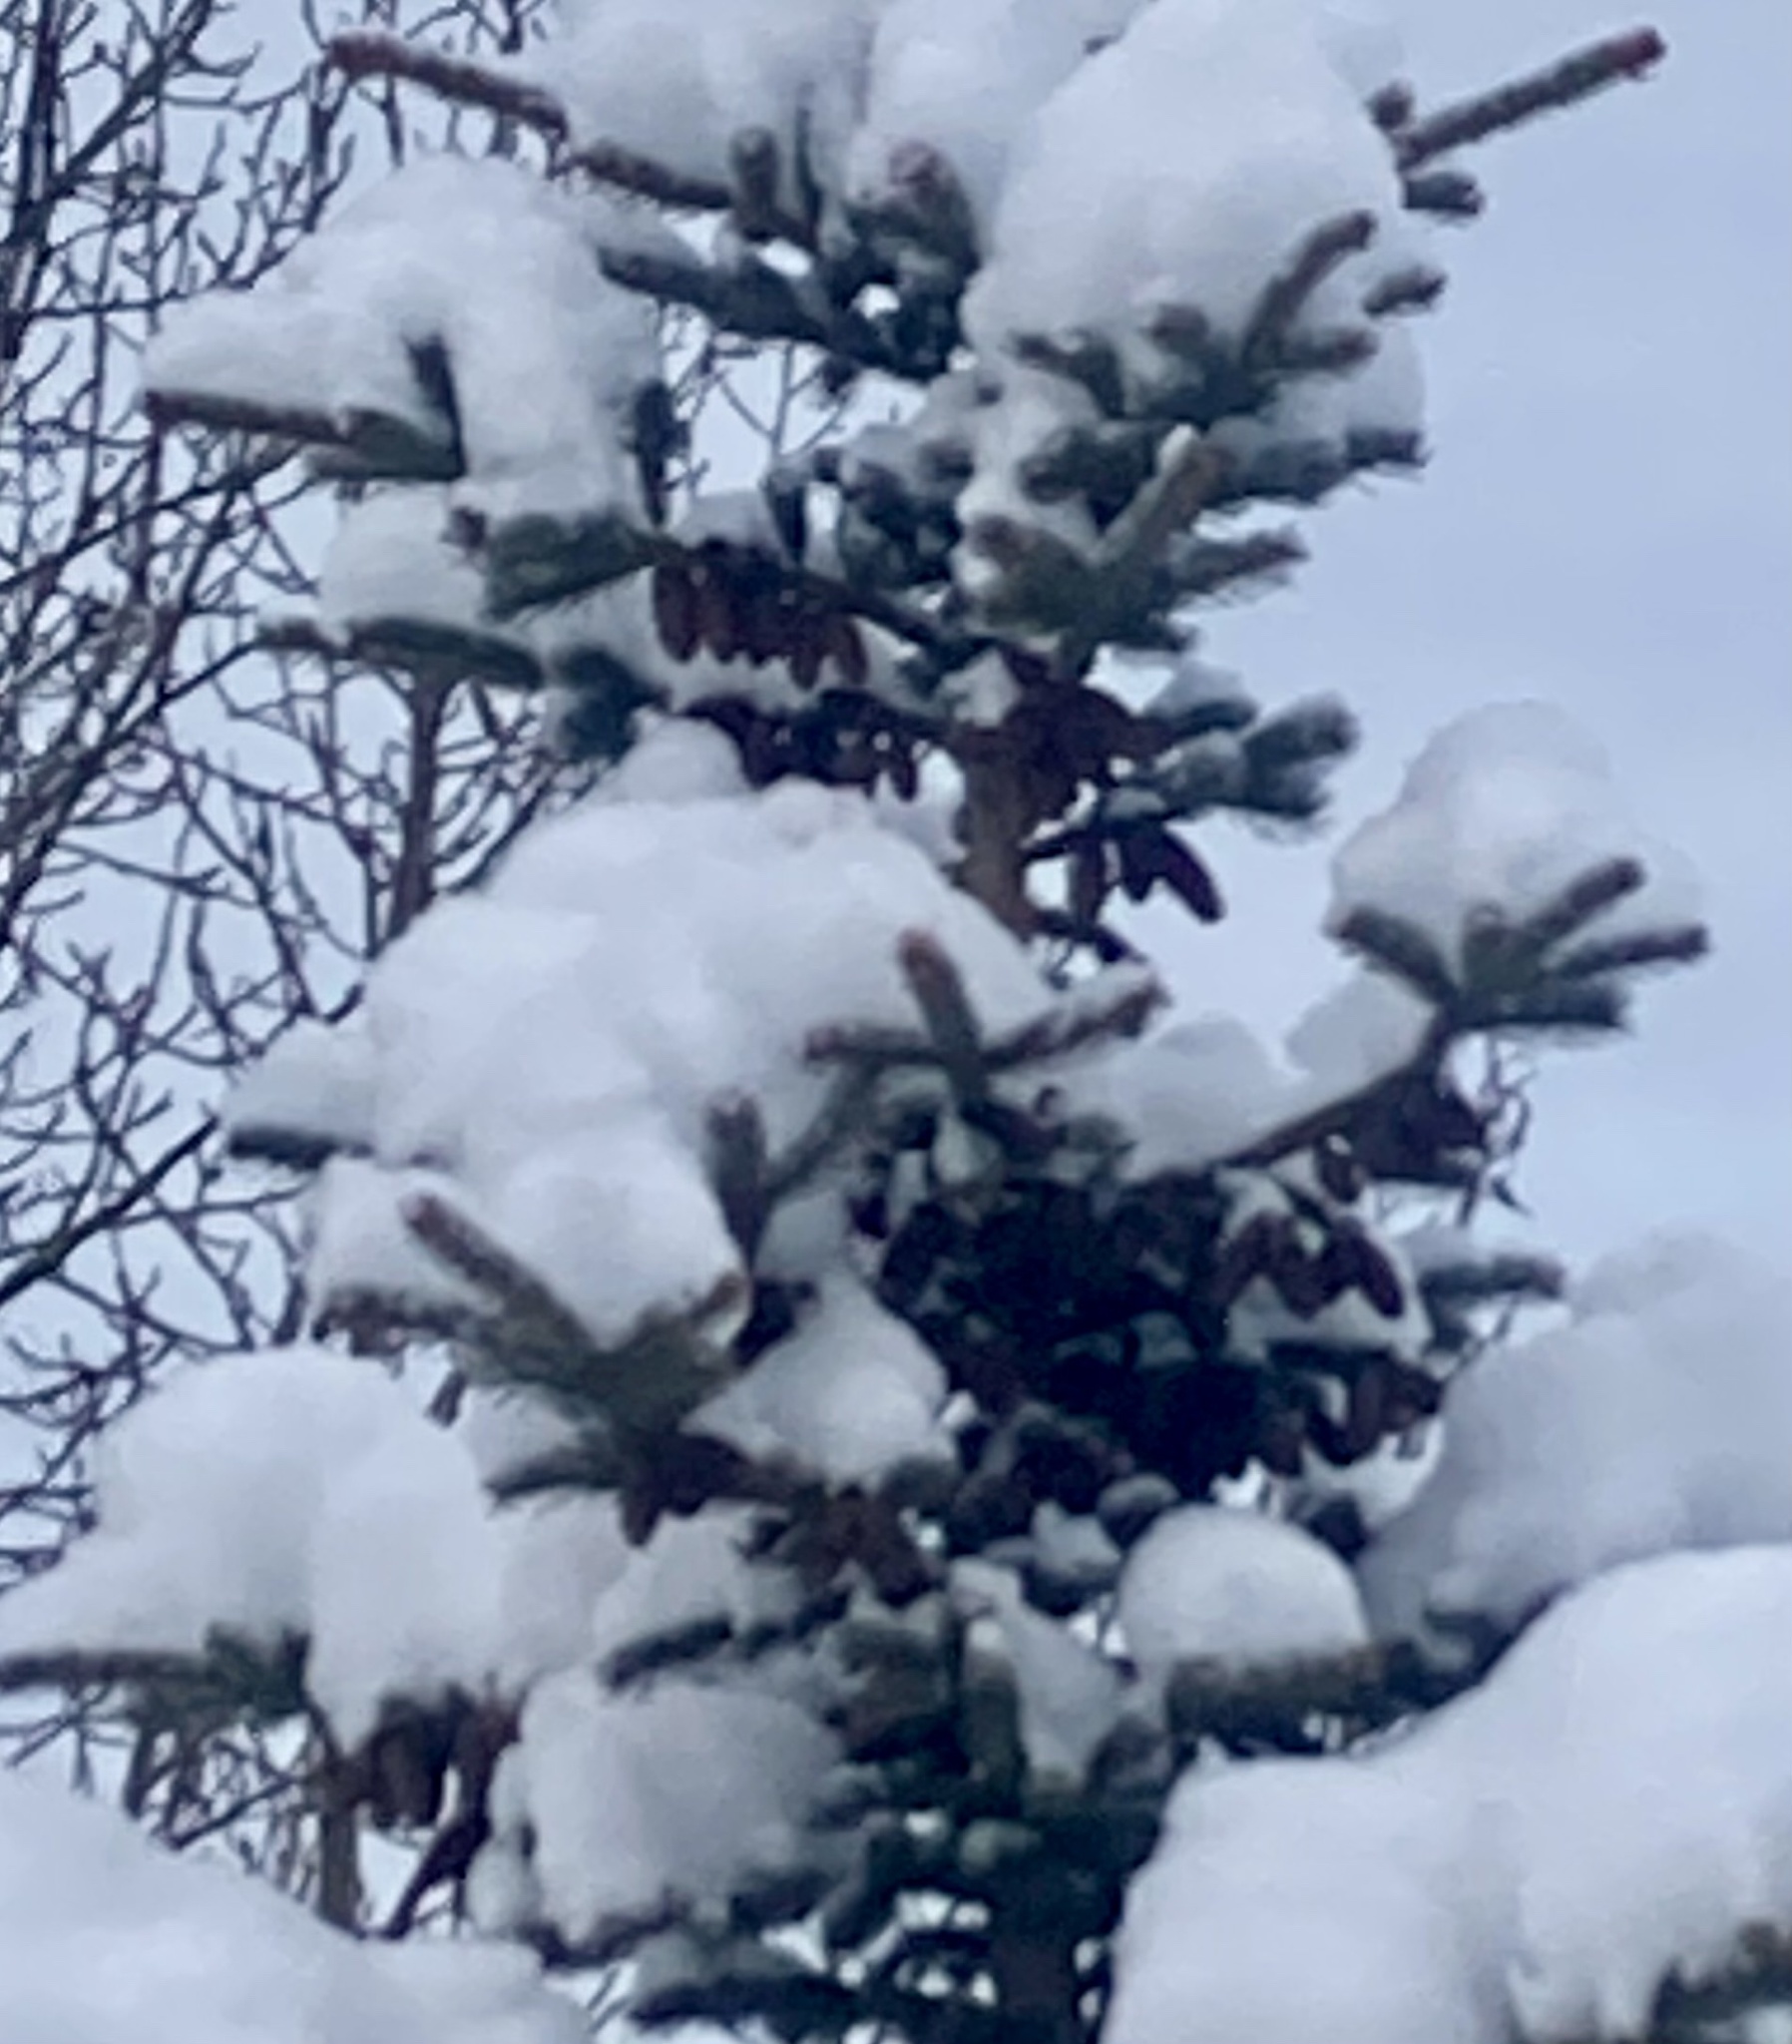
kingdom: Plantae
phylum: Tracheophyta
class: Pinopsida
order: Pinales
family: Pinaceae
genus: Picea
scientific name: Picea glauca
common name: White spruce
